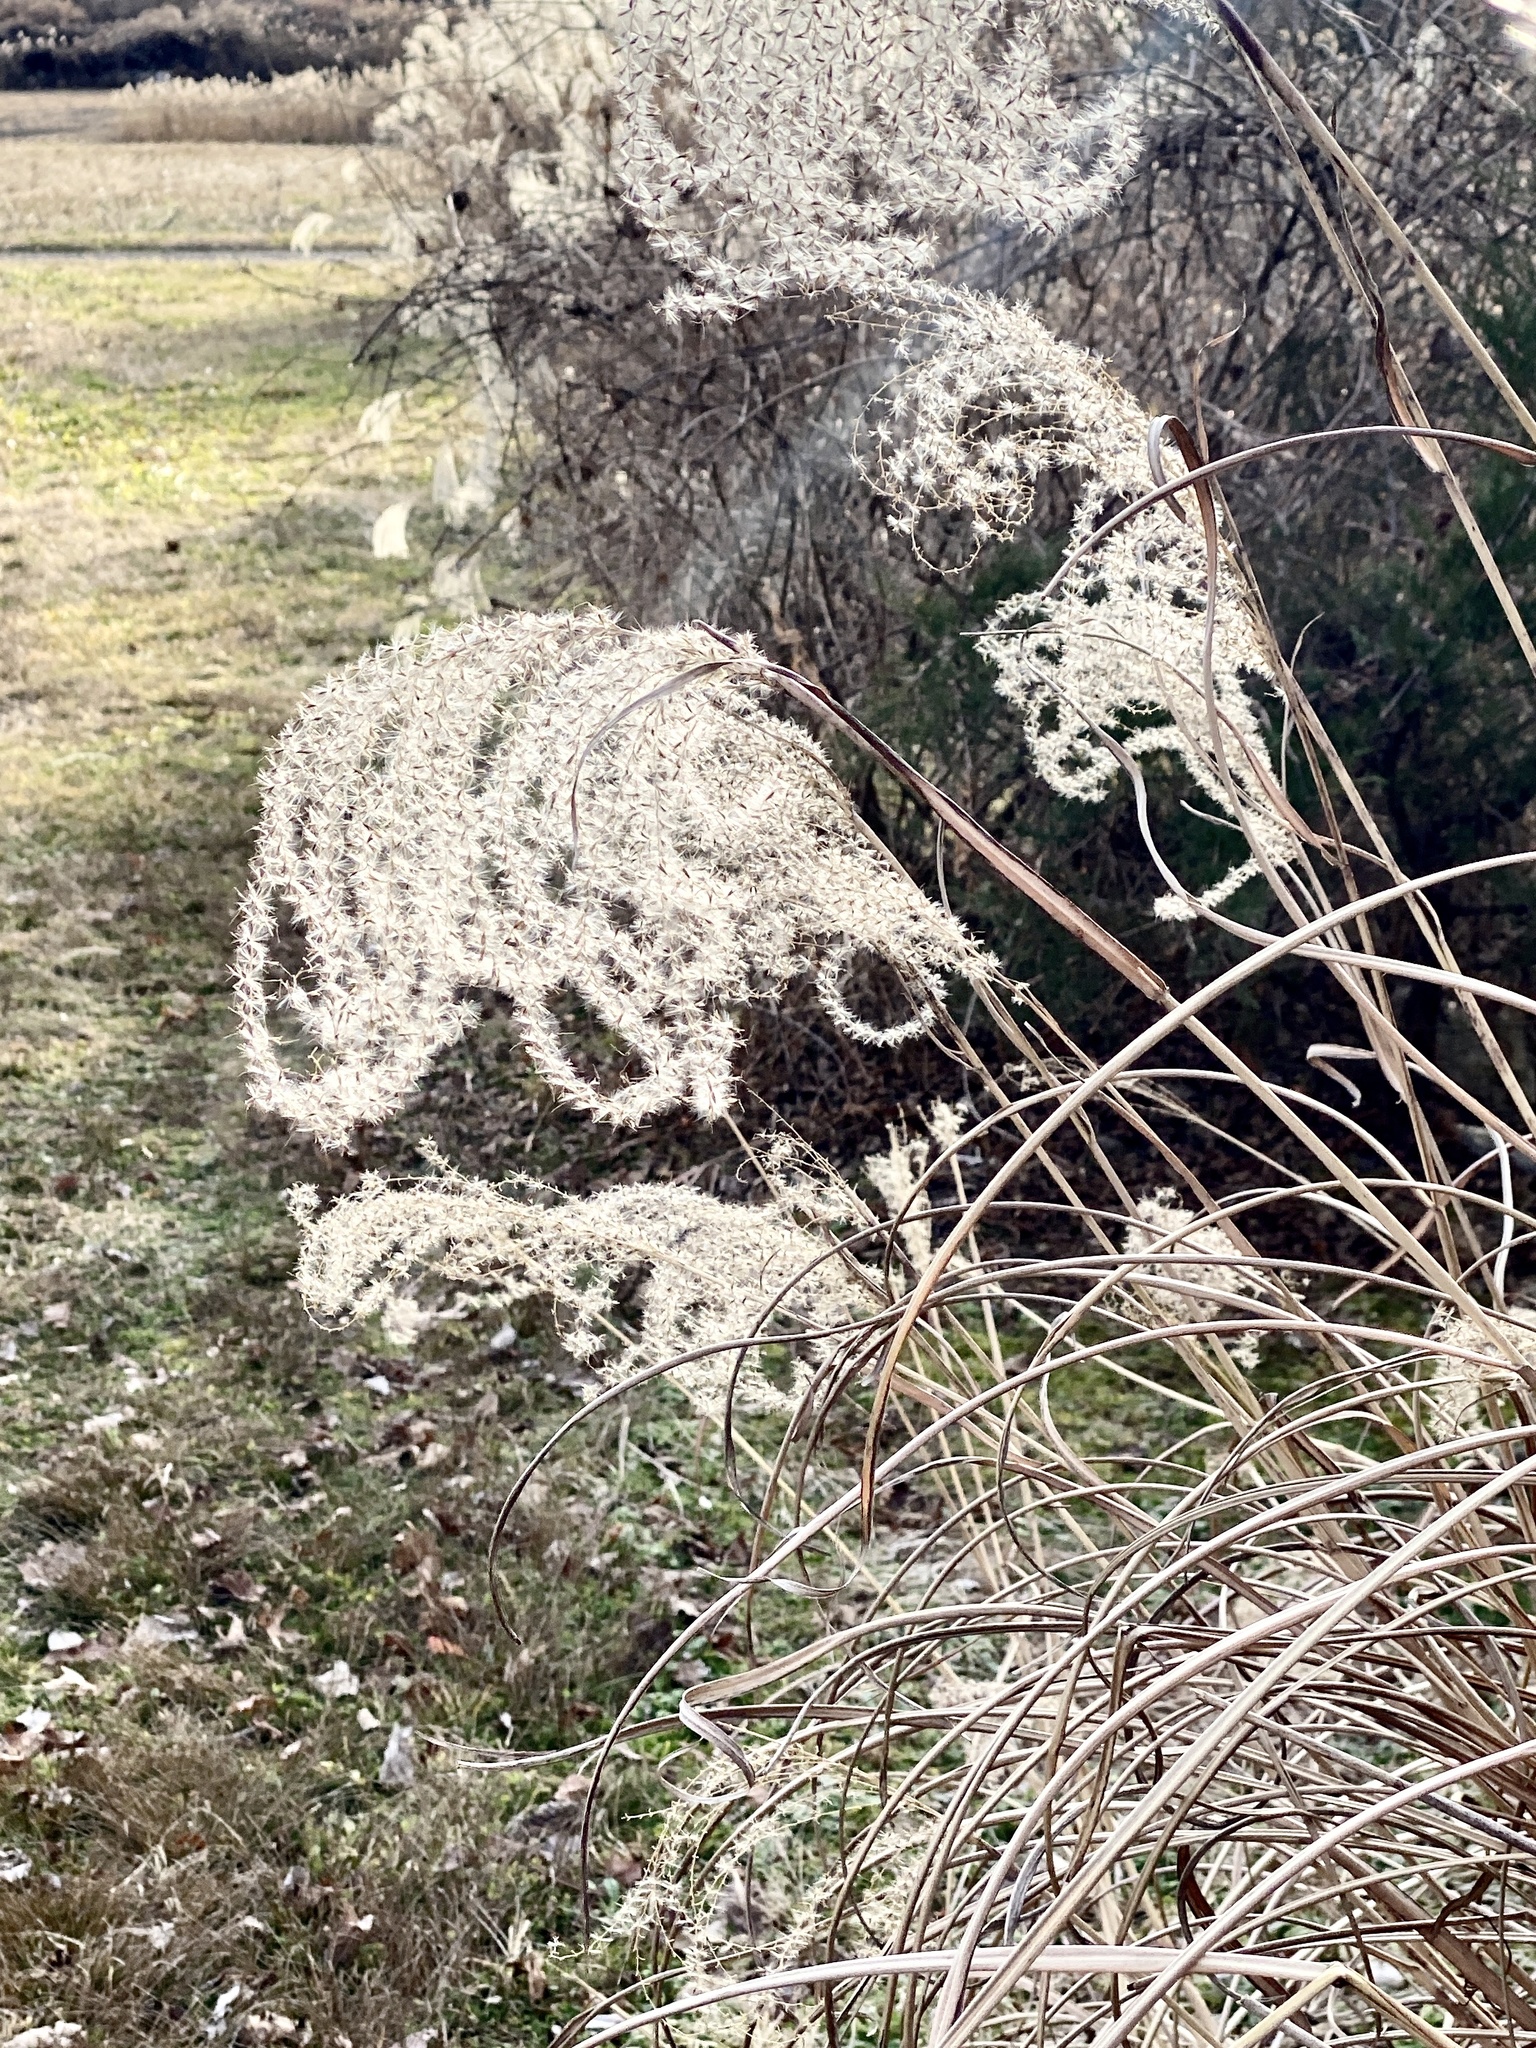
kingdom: Plantae
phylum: Tracheophyta
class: Liliopsida
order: Poales
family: Poaceae
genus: Miscanthus
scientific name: Miscanthus sinensis
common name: Chinese silvergrass
